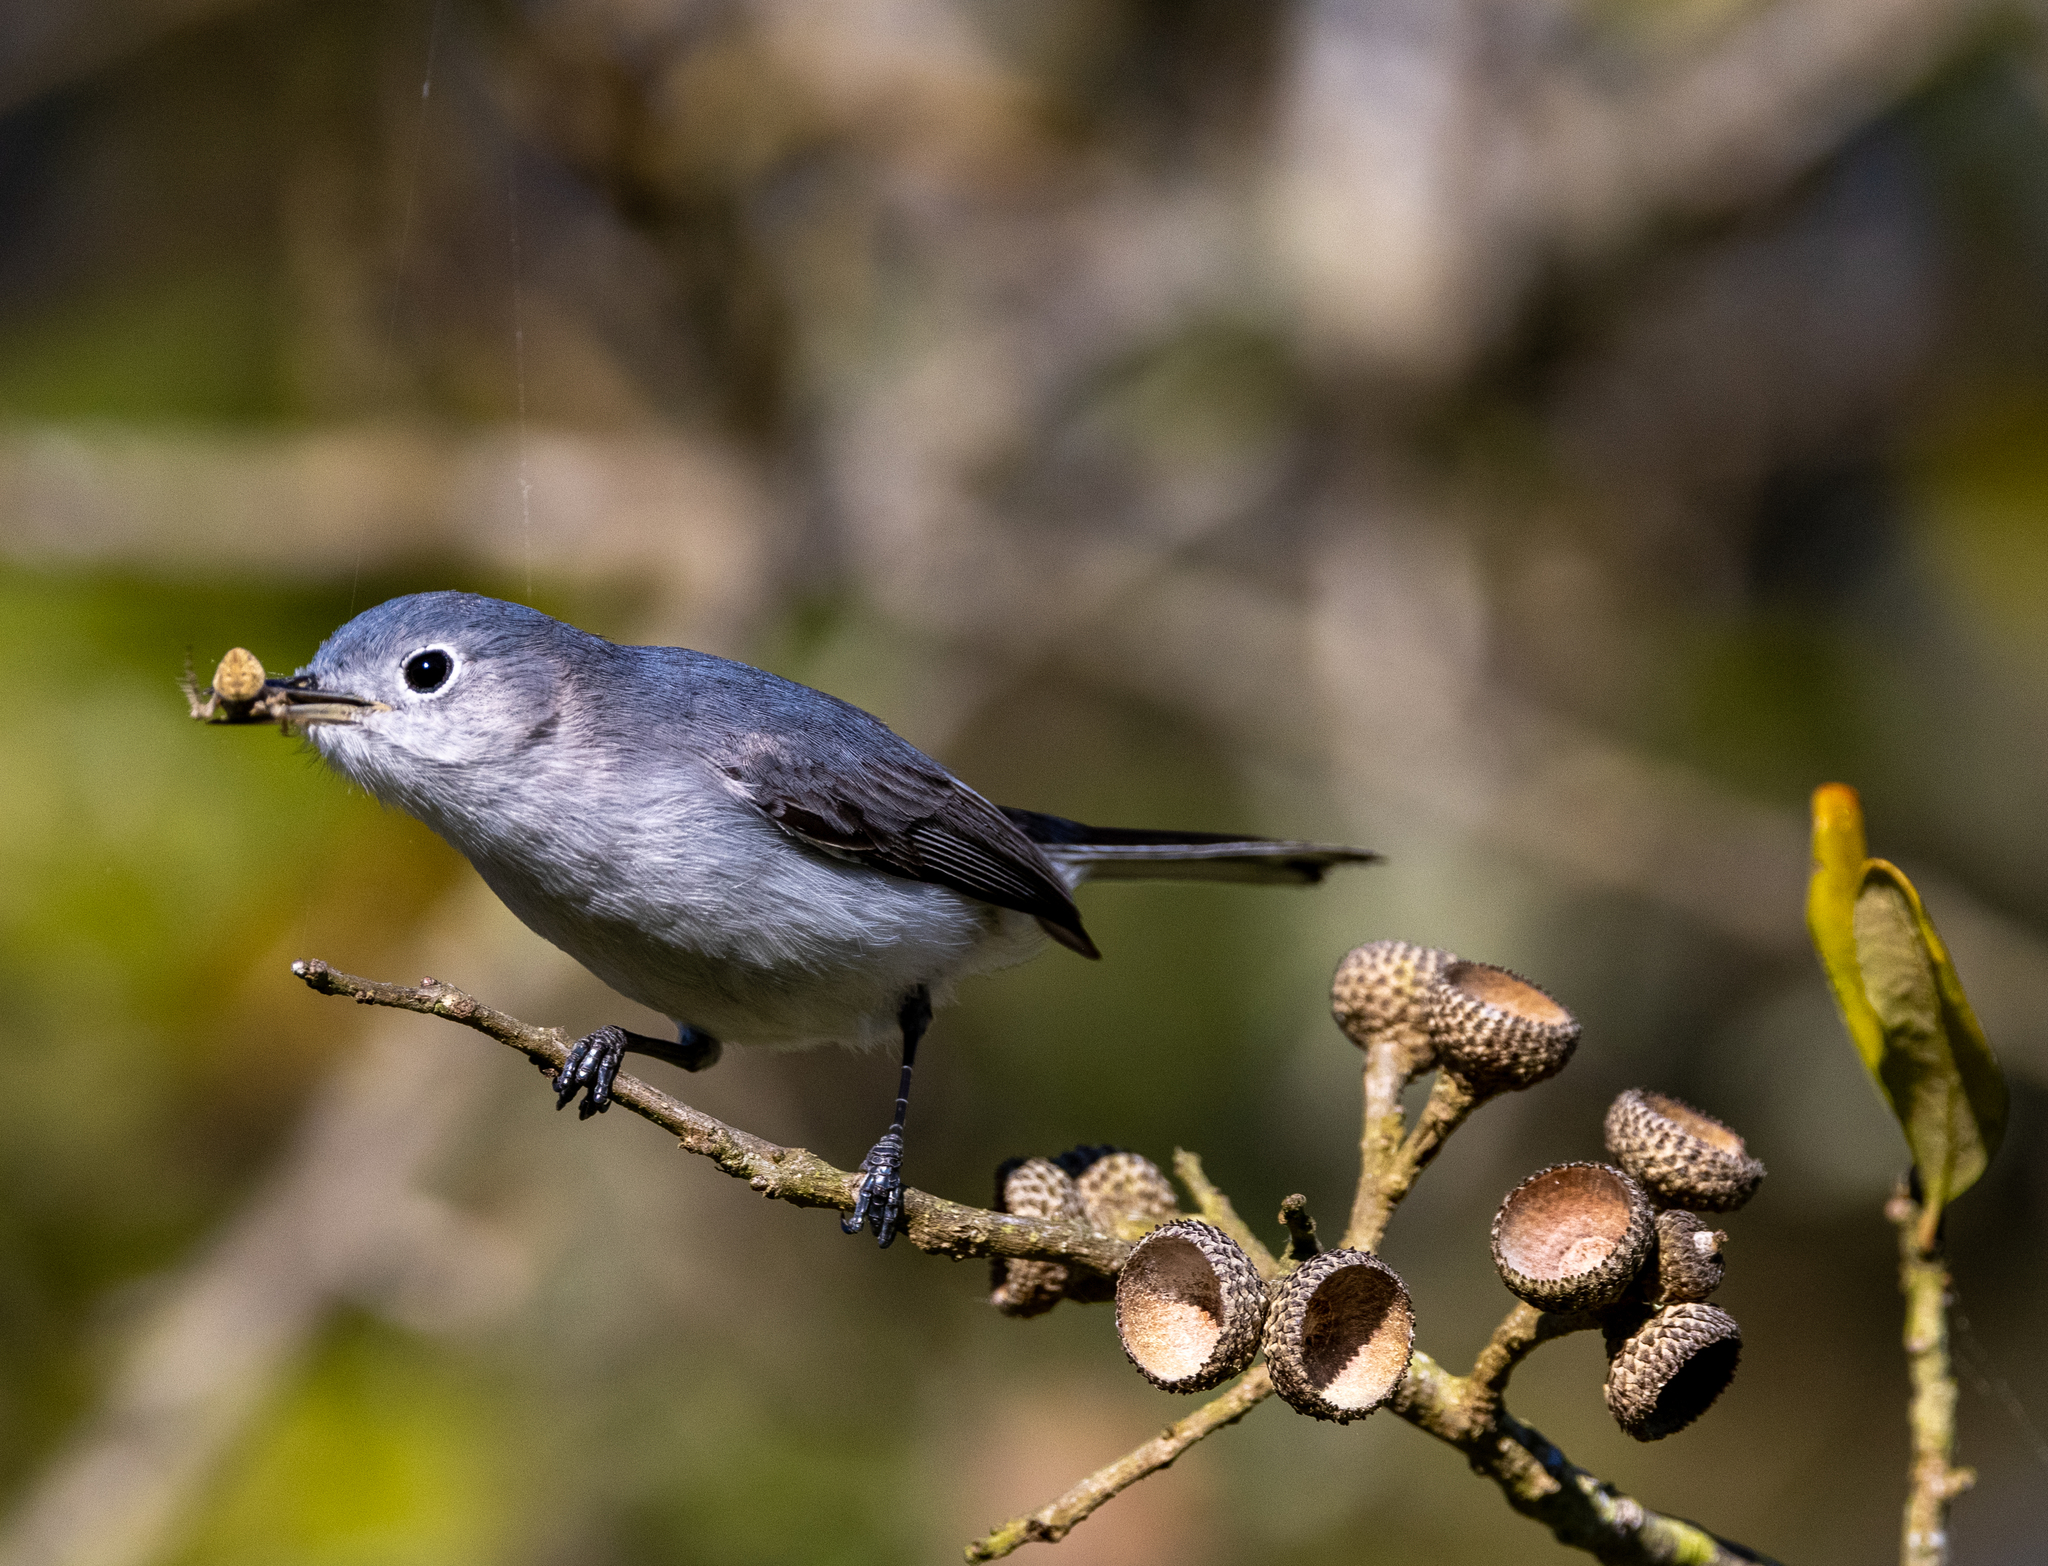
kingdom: Animalia
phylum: Chordata
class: Aves
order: Passeriformes
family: Polioptilidae
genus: Polioptila
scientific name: Polioptila caerulea
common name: Blue-gray gnatcatcher
